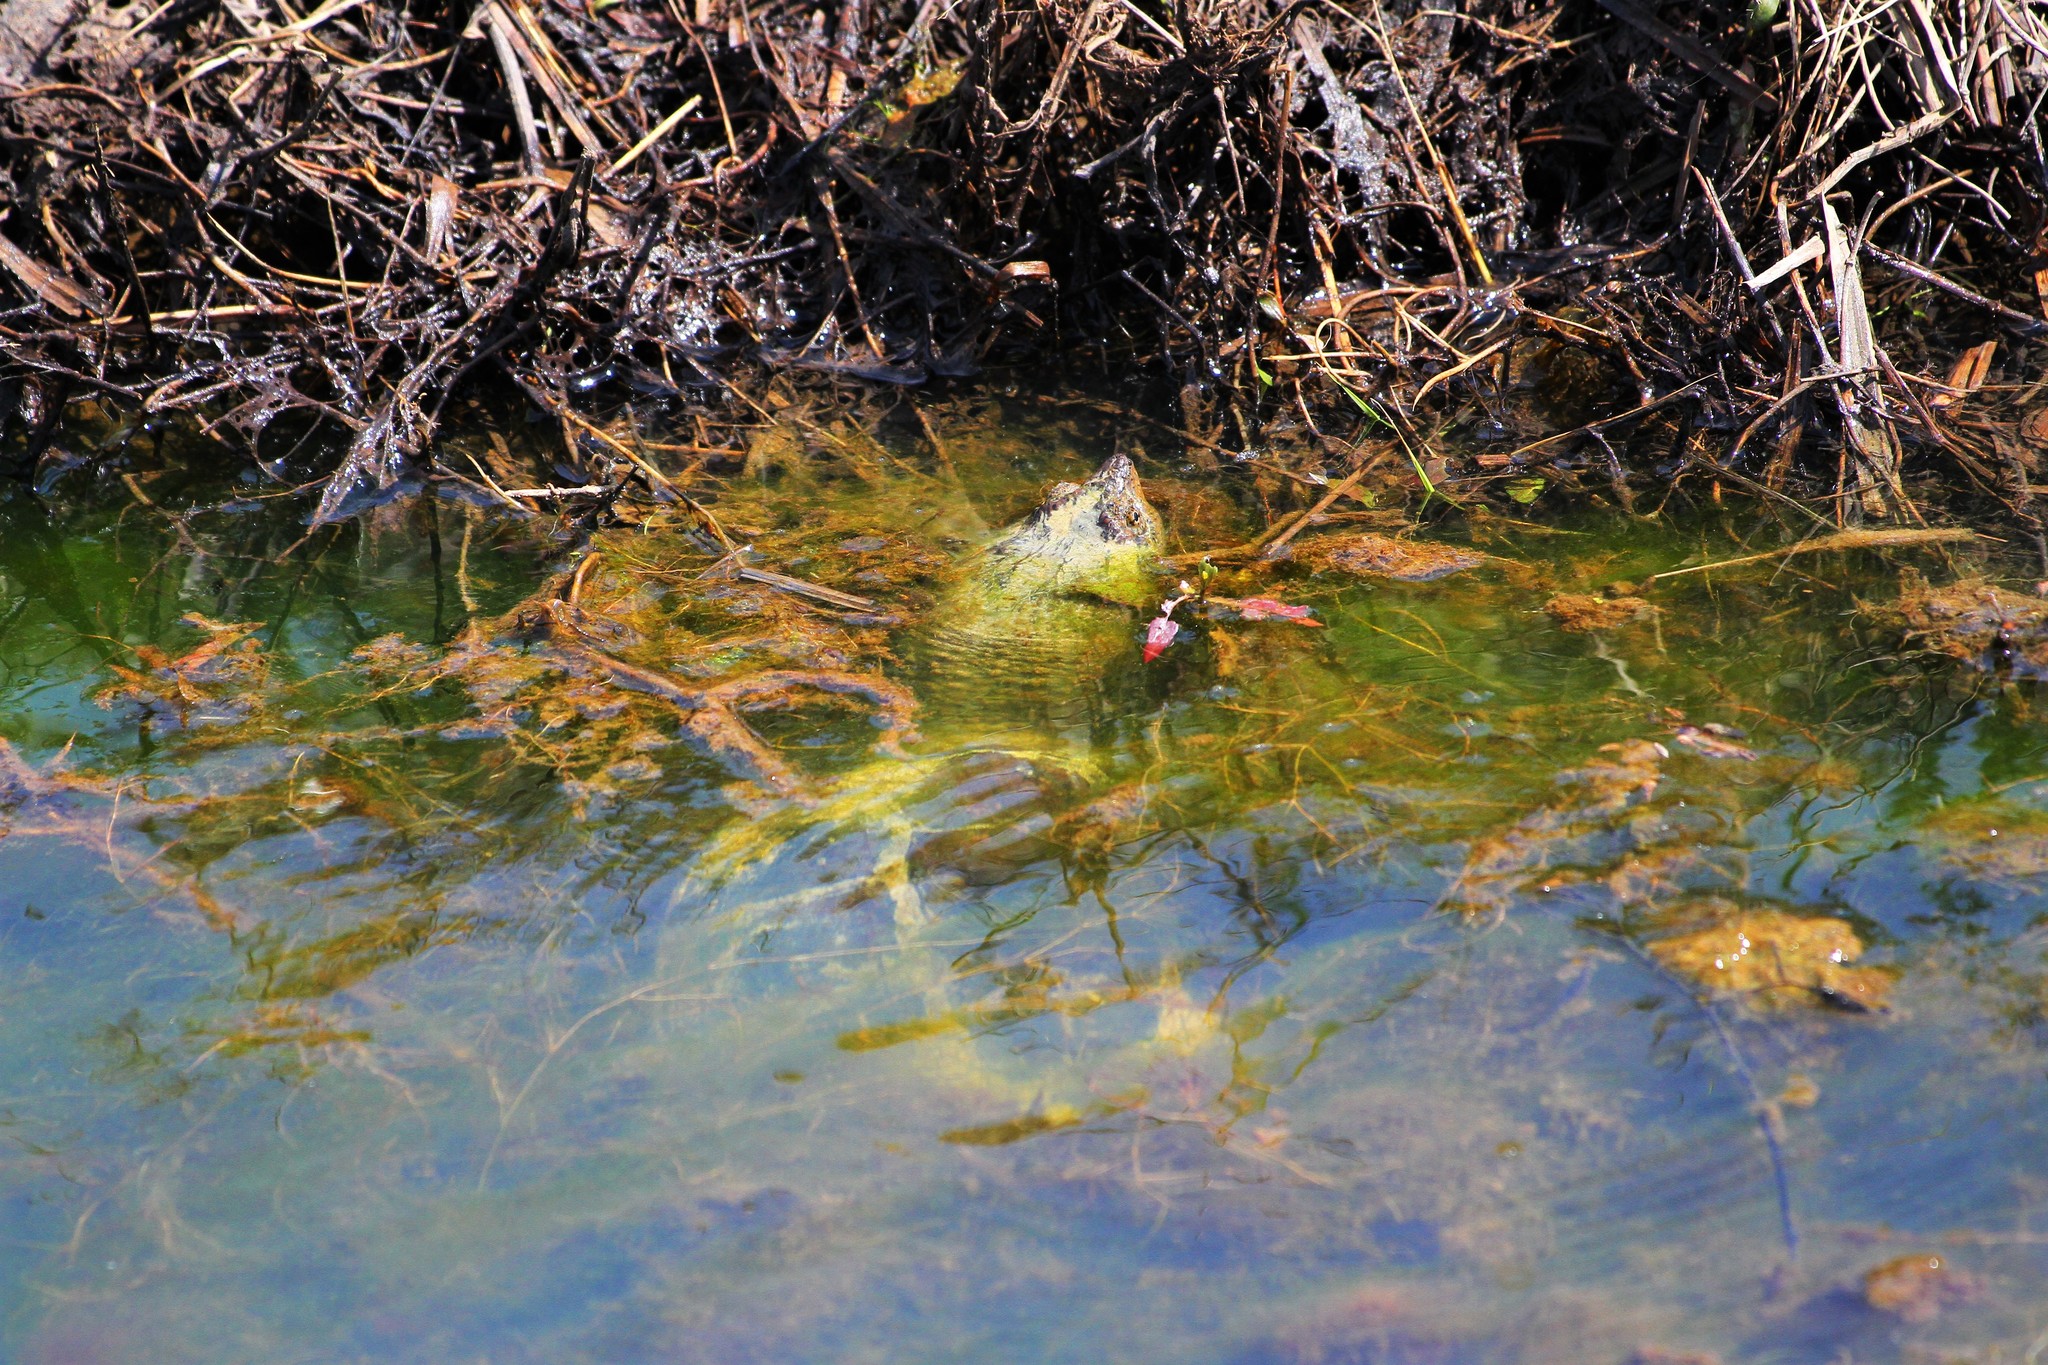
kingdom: Animalia
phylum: Chordata
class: Testudines
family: Chelydridae
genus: Chelydra
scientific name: Chelydra serpentina
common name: Common snapping turtle
